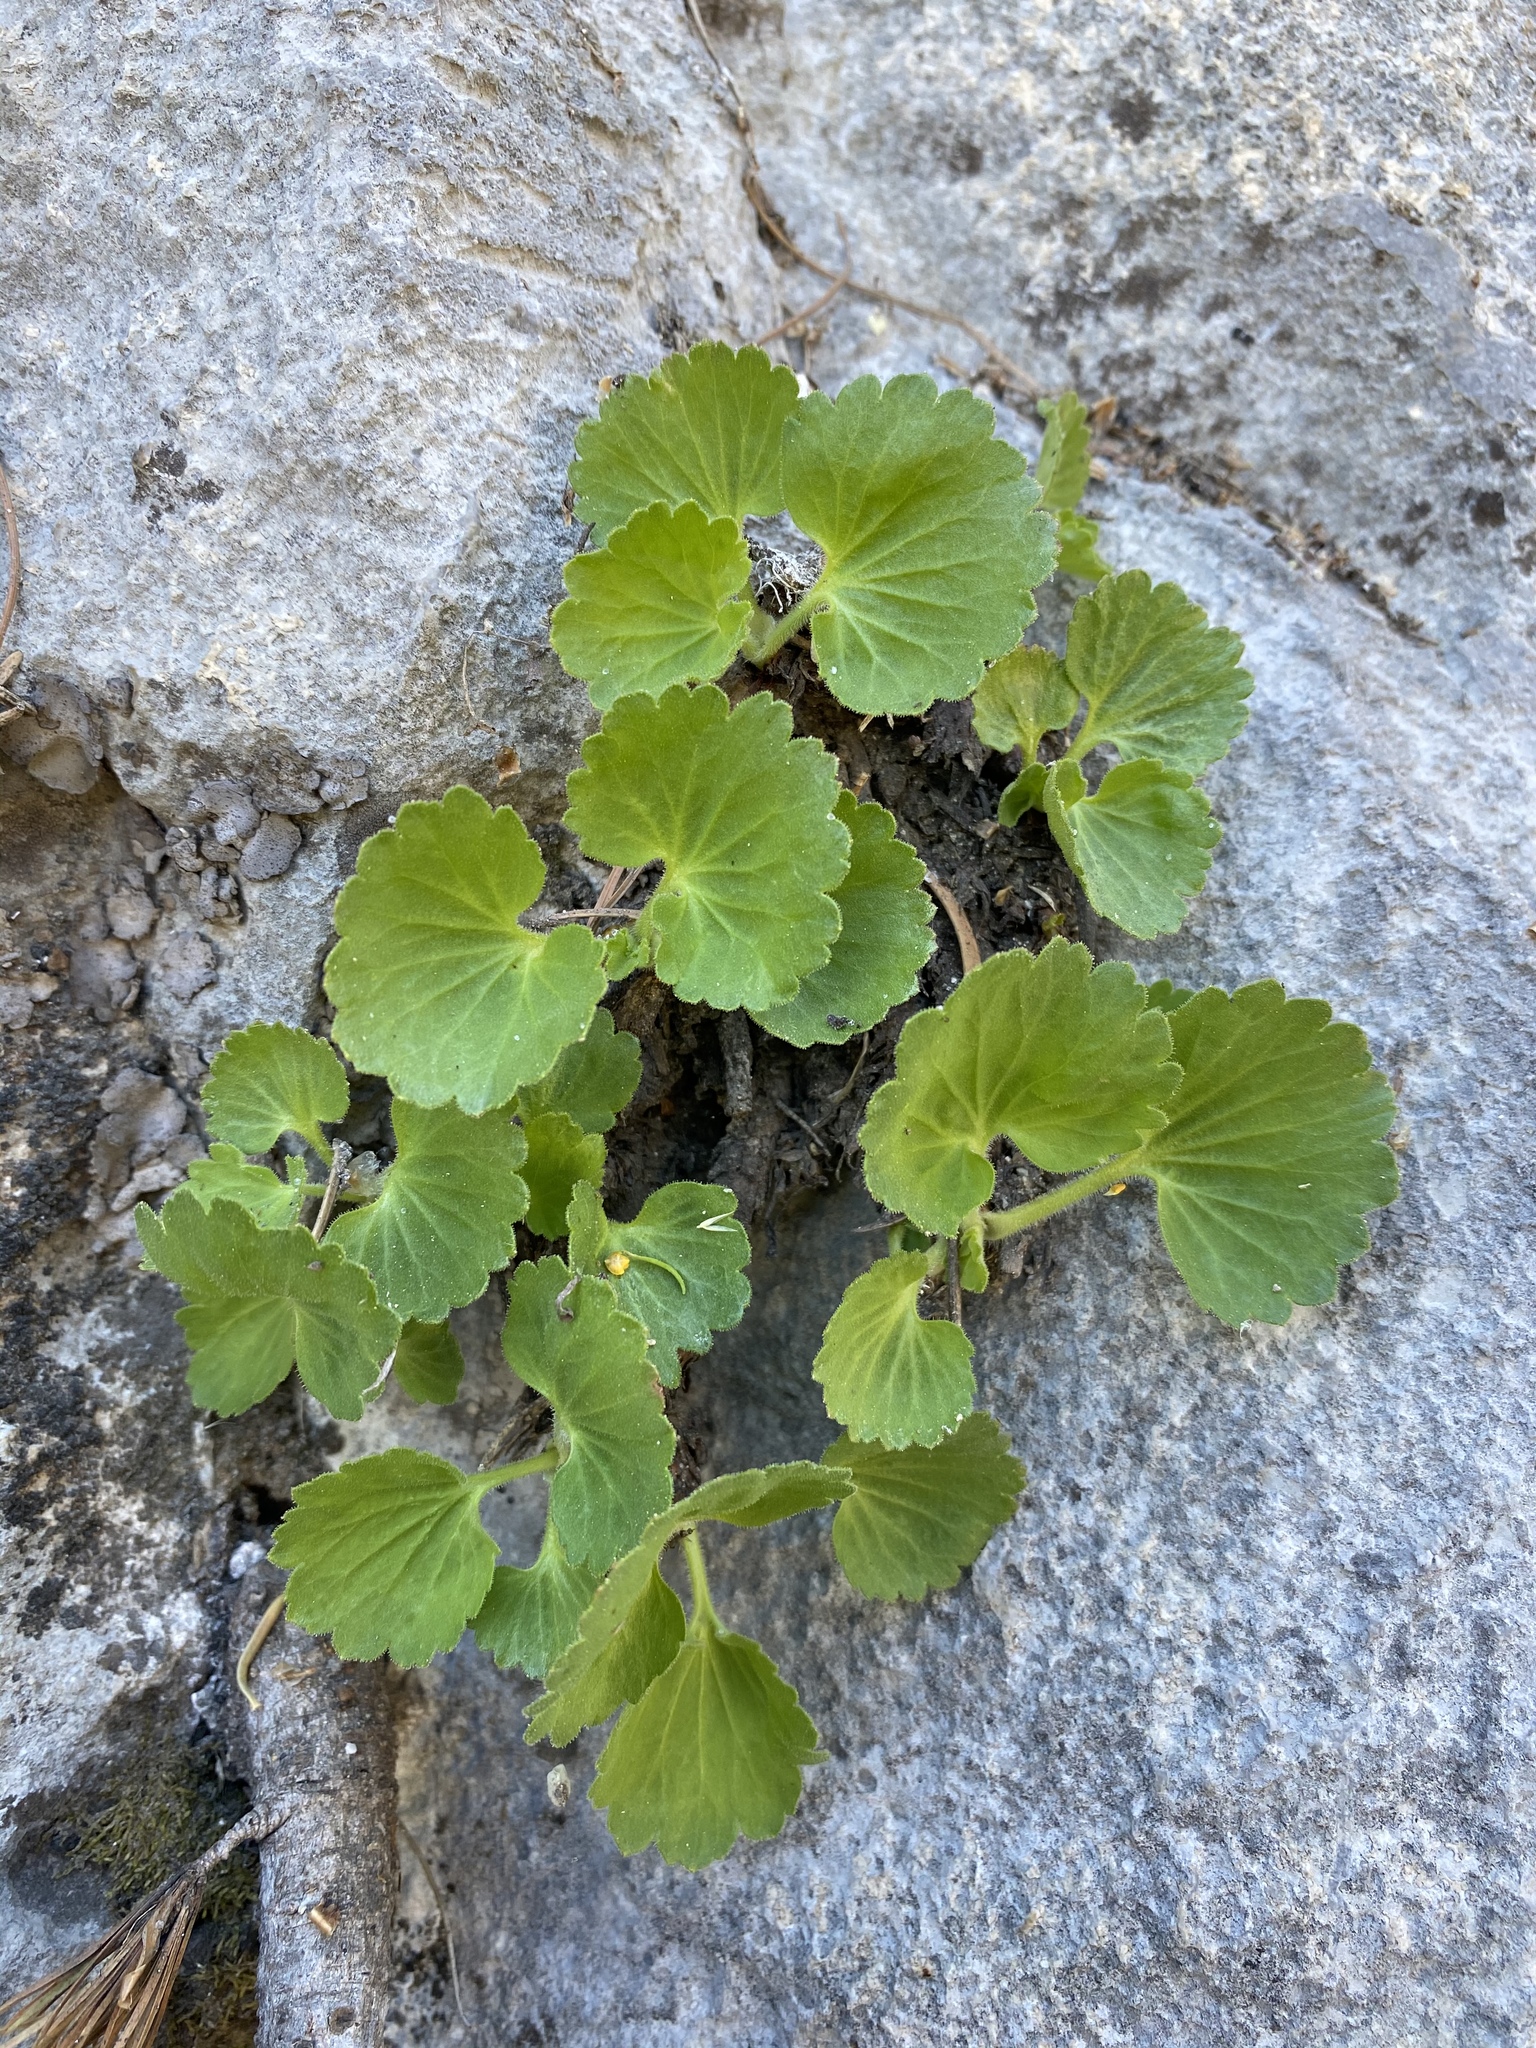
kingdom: Plantae
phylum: Tracheophyta
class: Magnoliopsida
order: Saxifragales
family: Saxifragaceae
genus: Telesonix
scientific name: Telesonix heucheriformis
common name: Alumroot brookfoam
